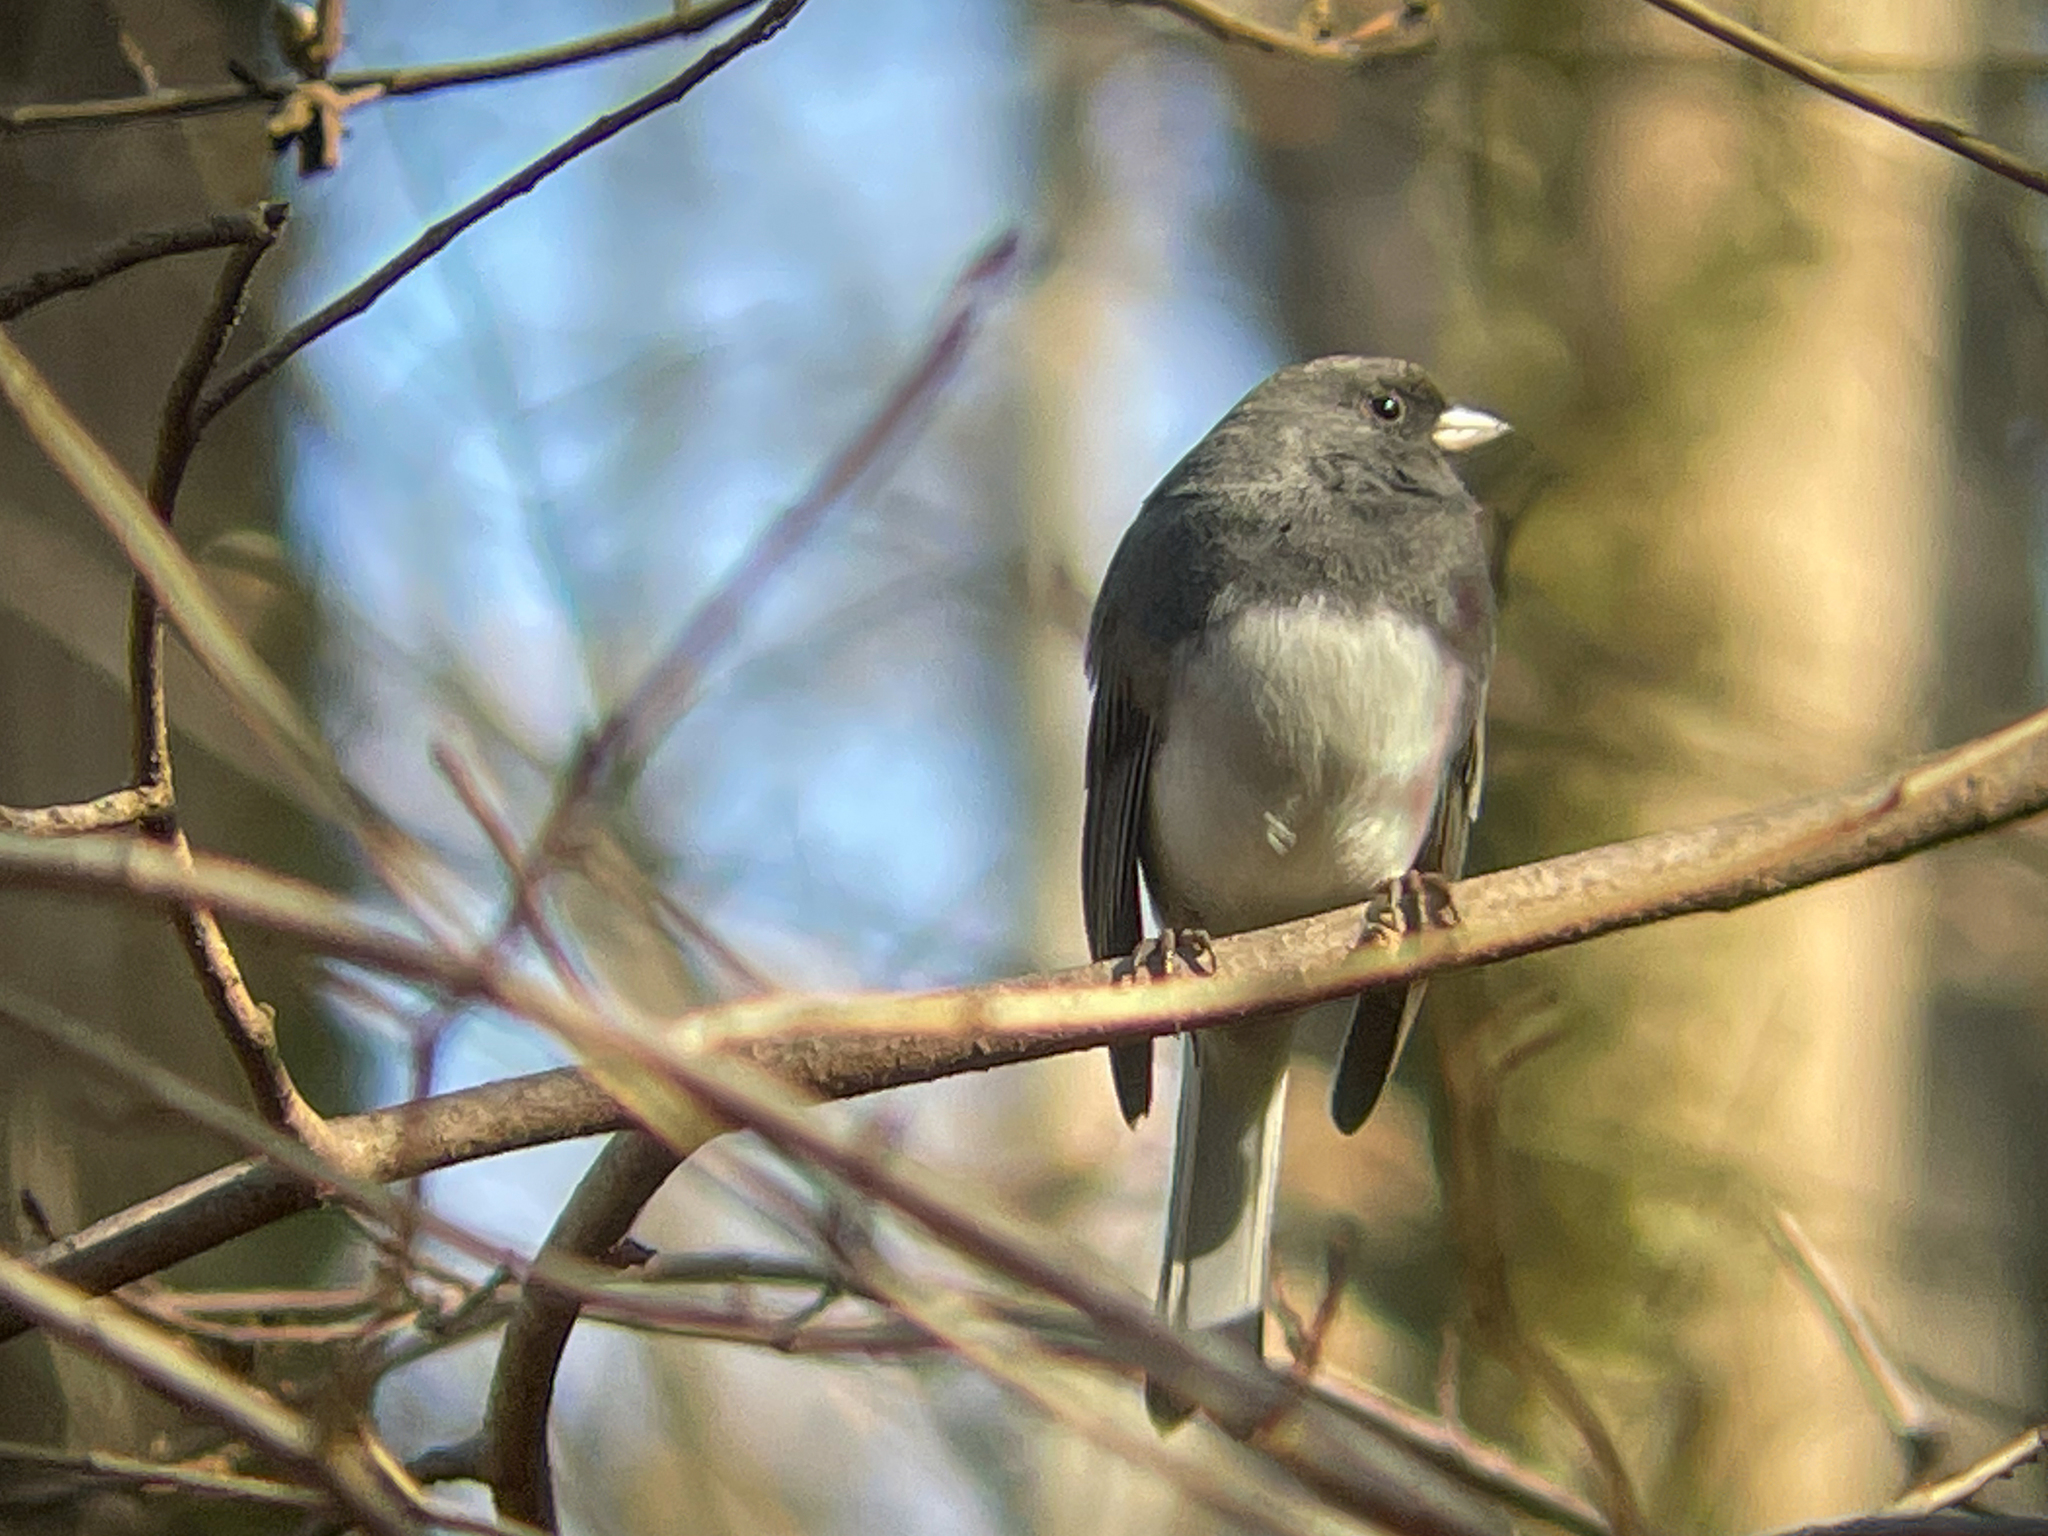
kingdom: Animalia
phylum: Chordata
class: Aves
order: Passeriformes
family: Passerellidae
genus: Junco
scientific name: Junco hyemalis
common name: Dark-eyed junco
